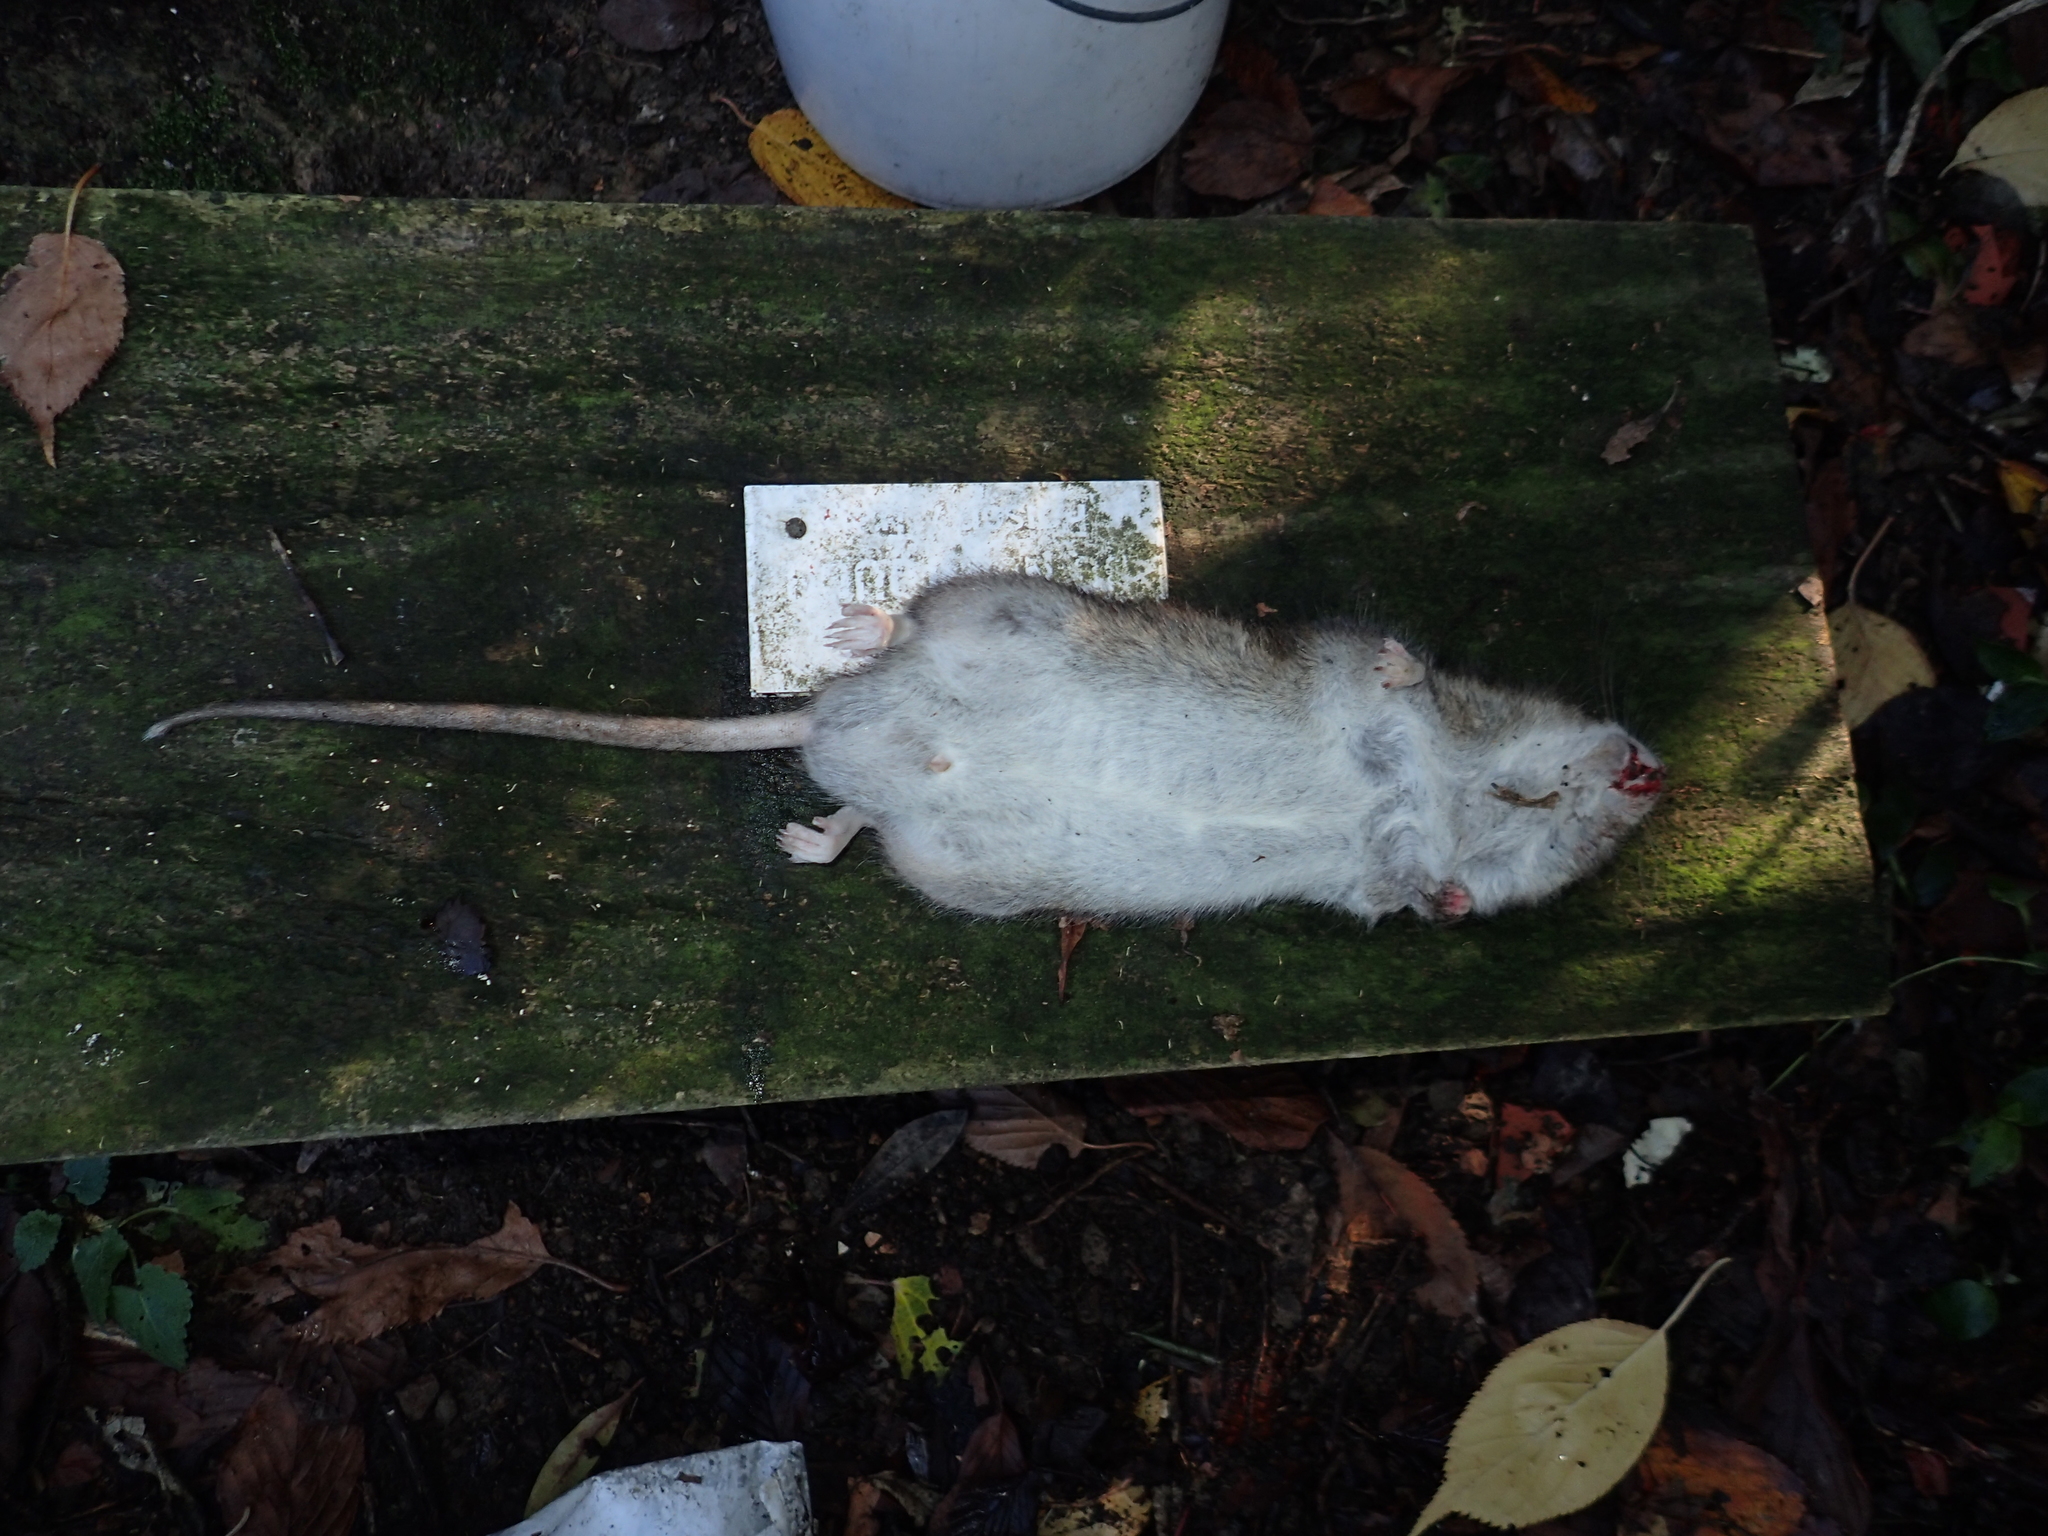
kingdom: Animalia
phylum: Chordata
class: Mammalia
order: Rodentia
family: Muridae
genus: Rattus
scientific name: Rattus norvegicus
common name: Brown rat
